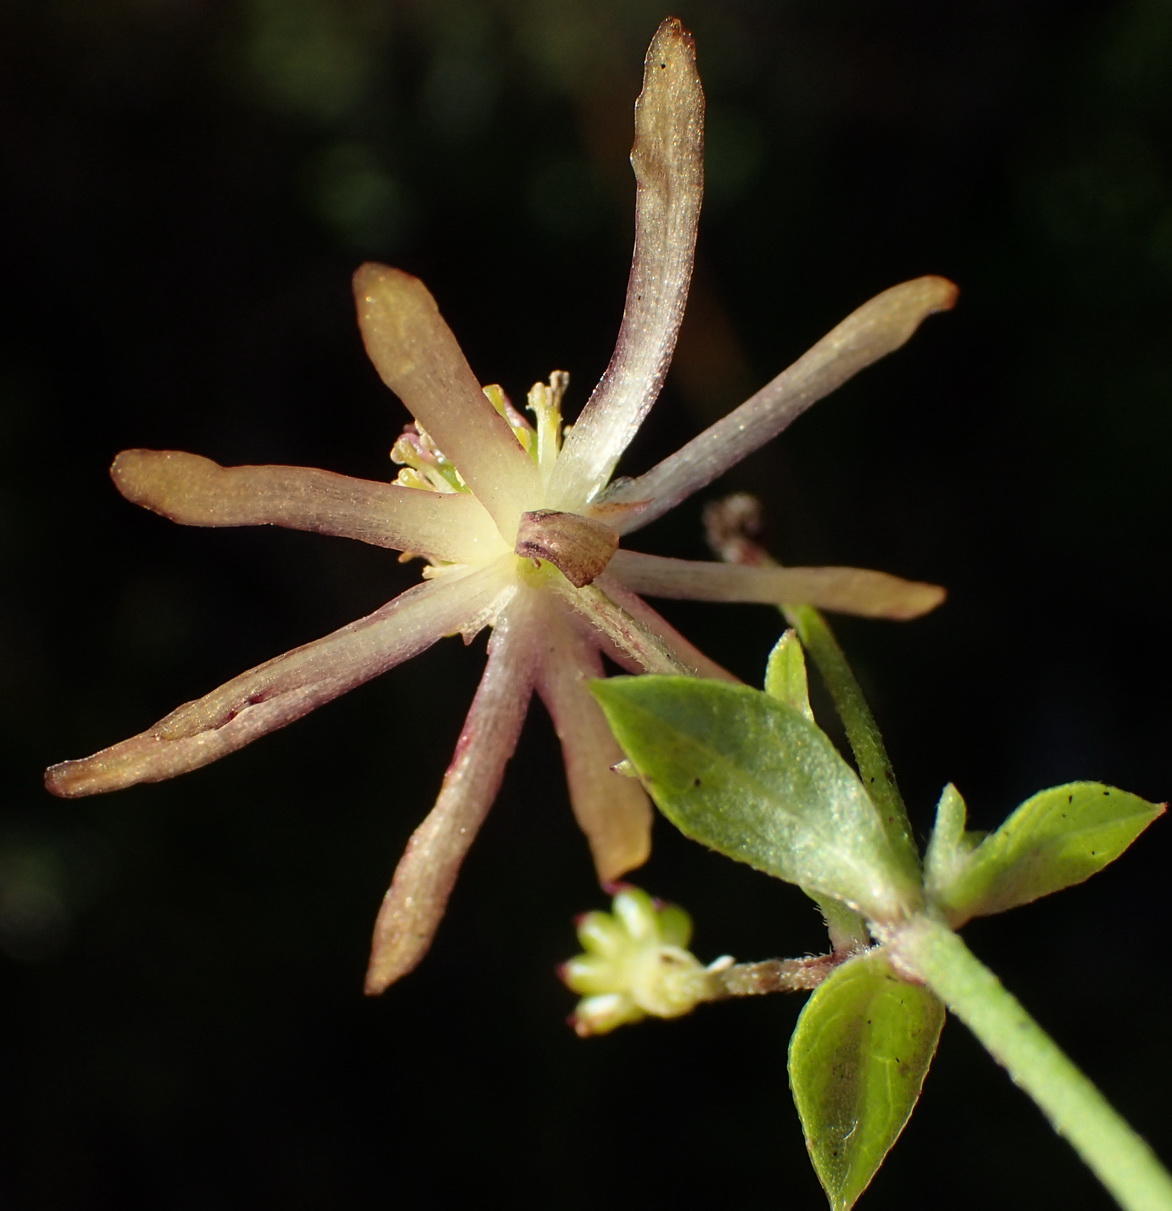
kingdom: Plantae
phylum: Tracheophyta
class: Magnoliopsida
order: Ranunculales
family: Ranunculaceae
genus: Knowltonia
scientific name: Knowltonia vesicatoria
